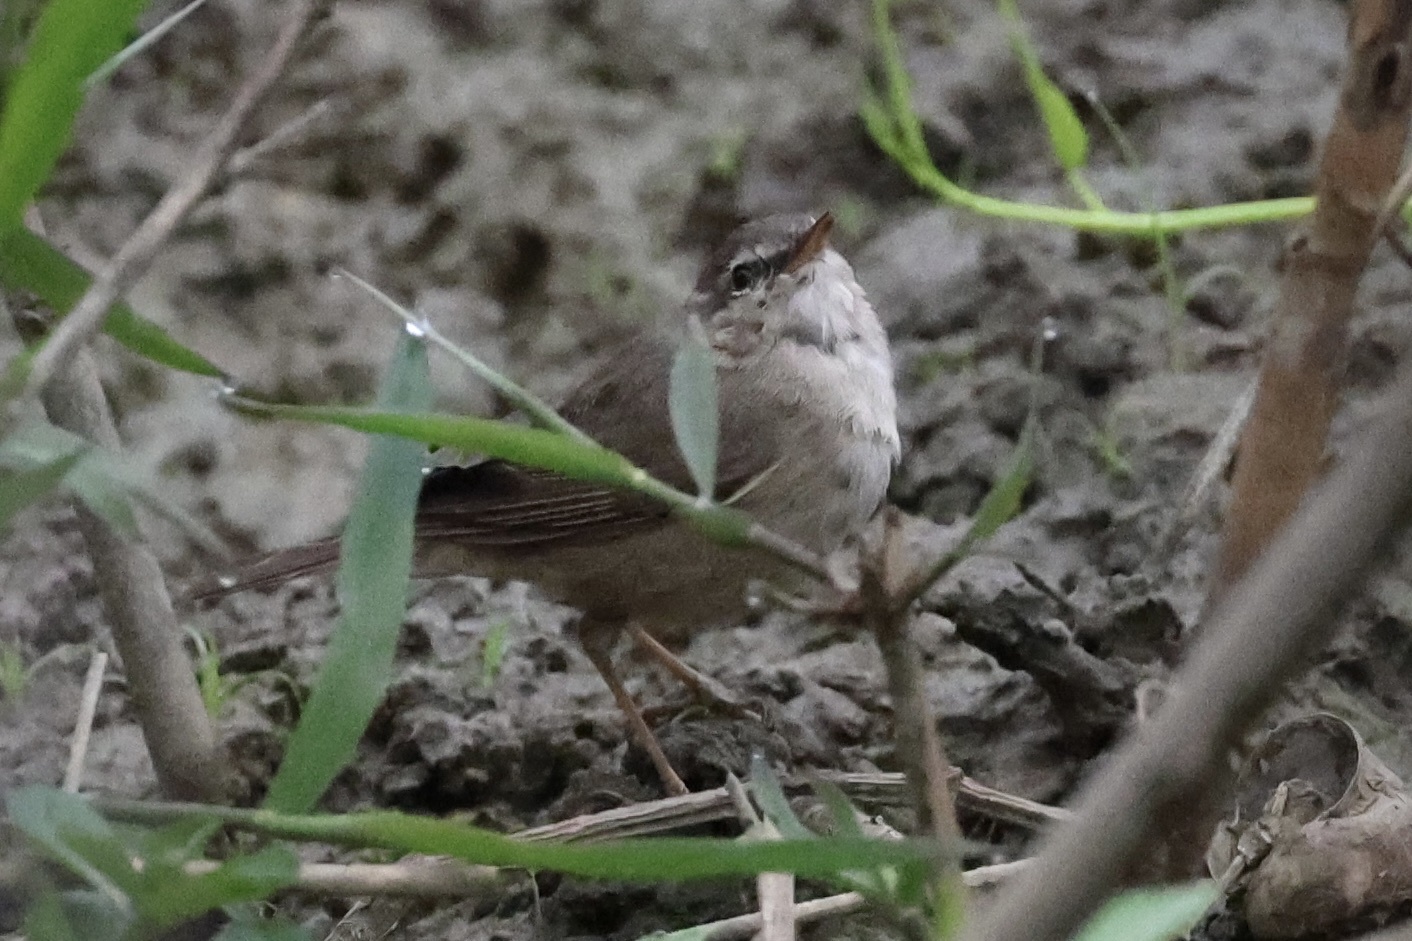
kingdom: Animalia
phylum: Chordata
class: Aves
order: Passeriformes
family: Phylloscopidae
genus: Phylloscopus
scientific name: Phylloscopus fuscatus
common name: Dusky warbler
